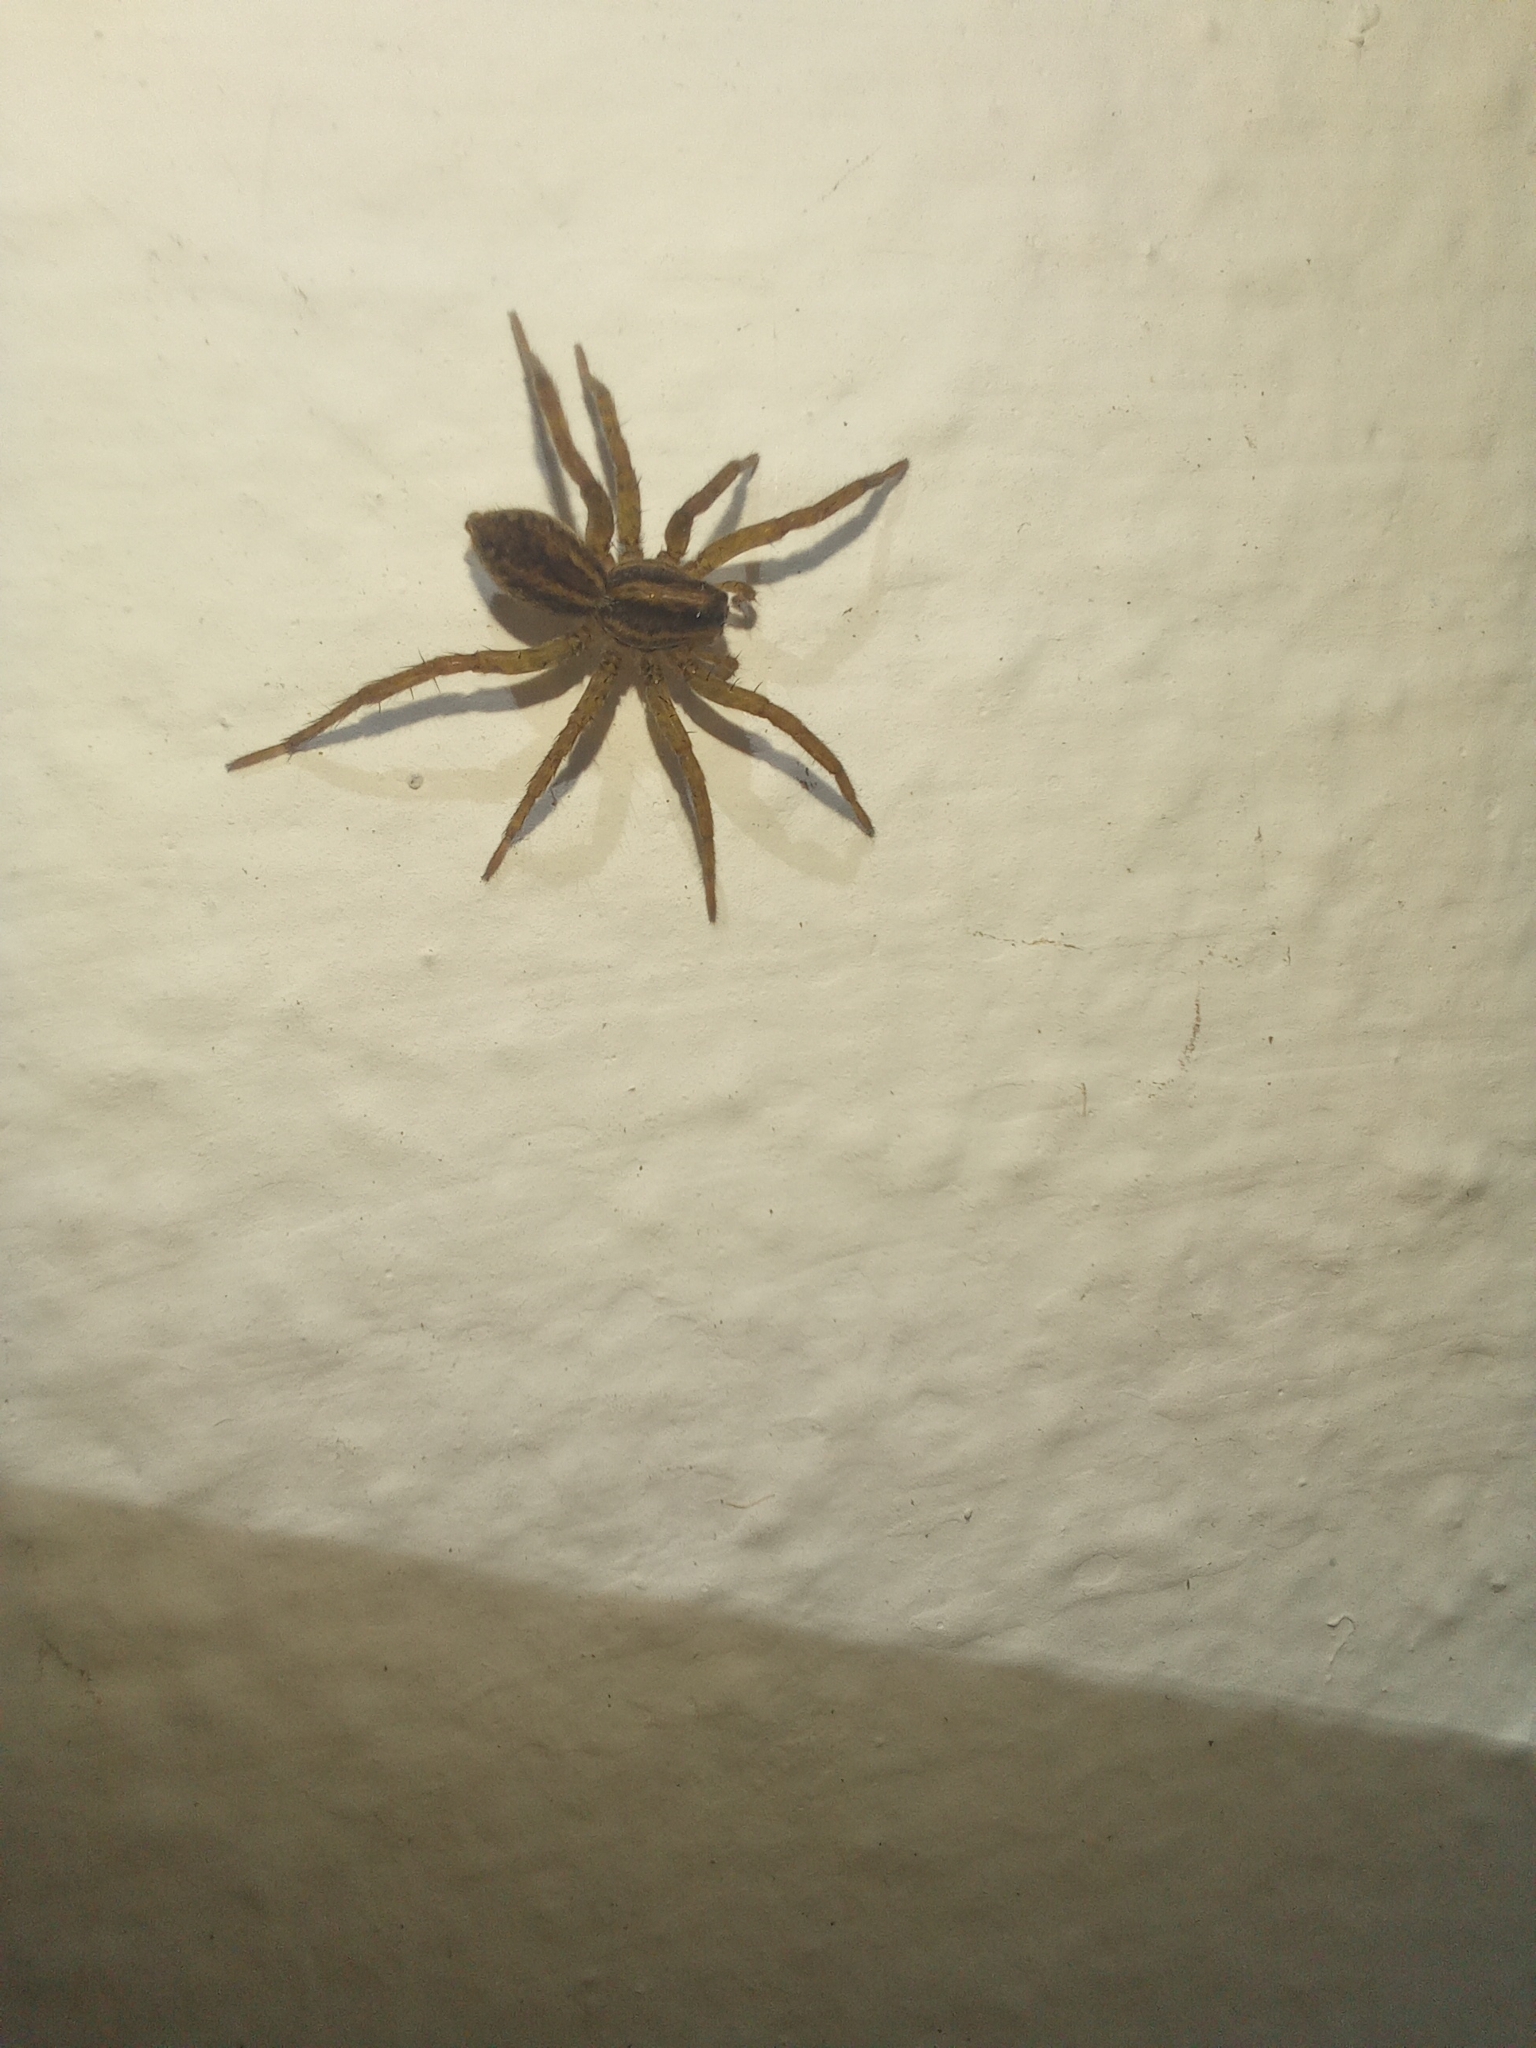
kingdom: Animalia
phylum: Arthropoda
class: Arachnida
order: Araneae
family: Lycosidae
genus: Alopecosa
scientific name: Alopecosa moesta
